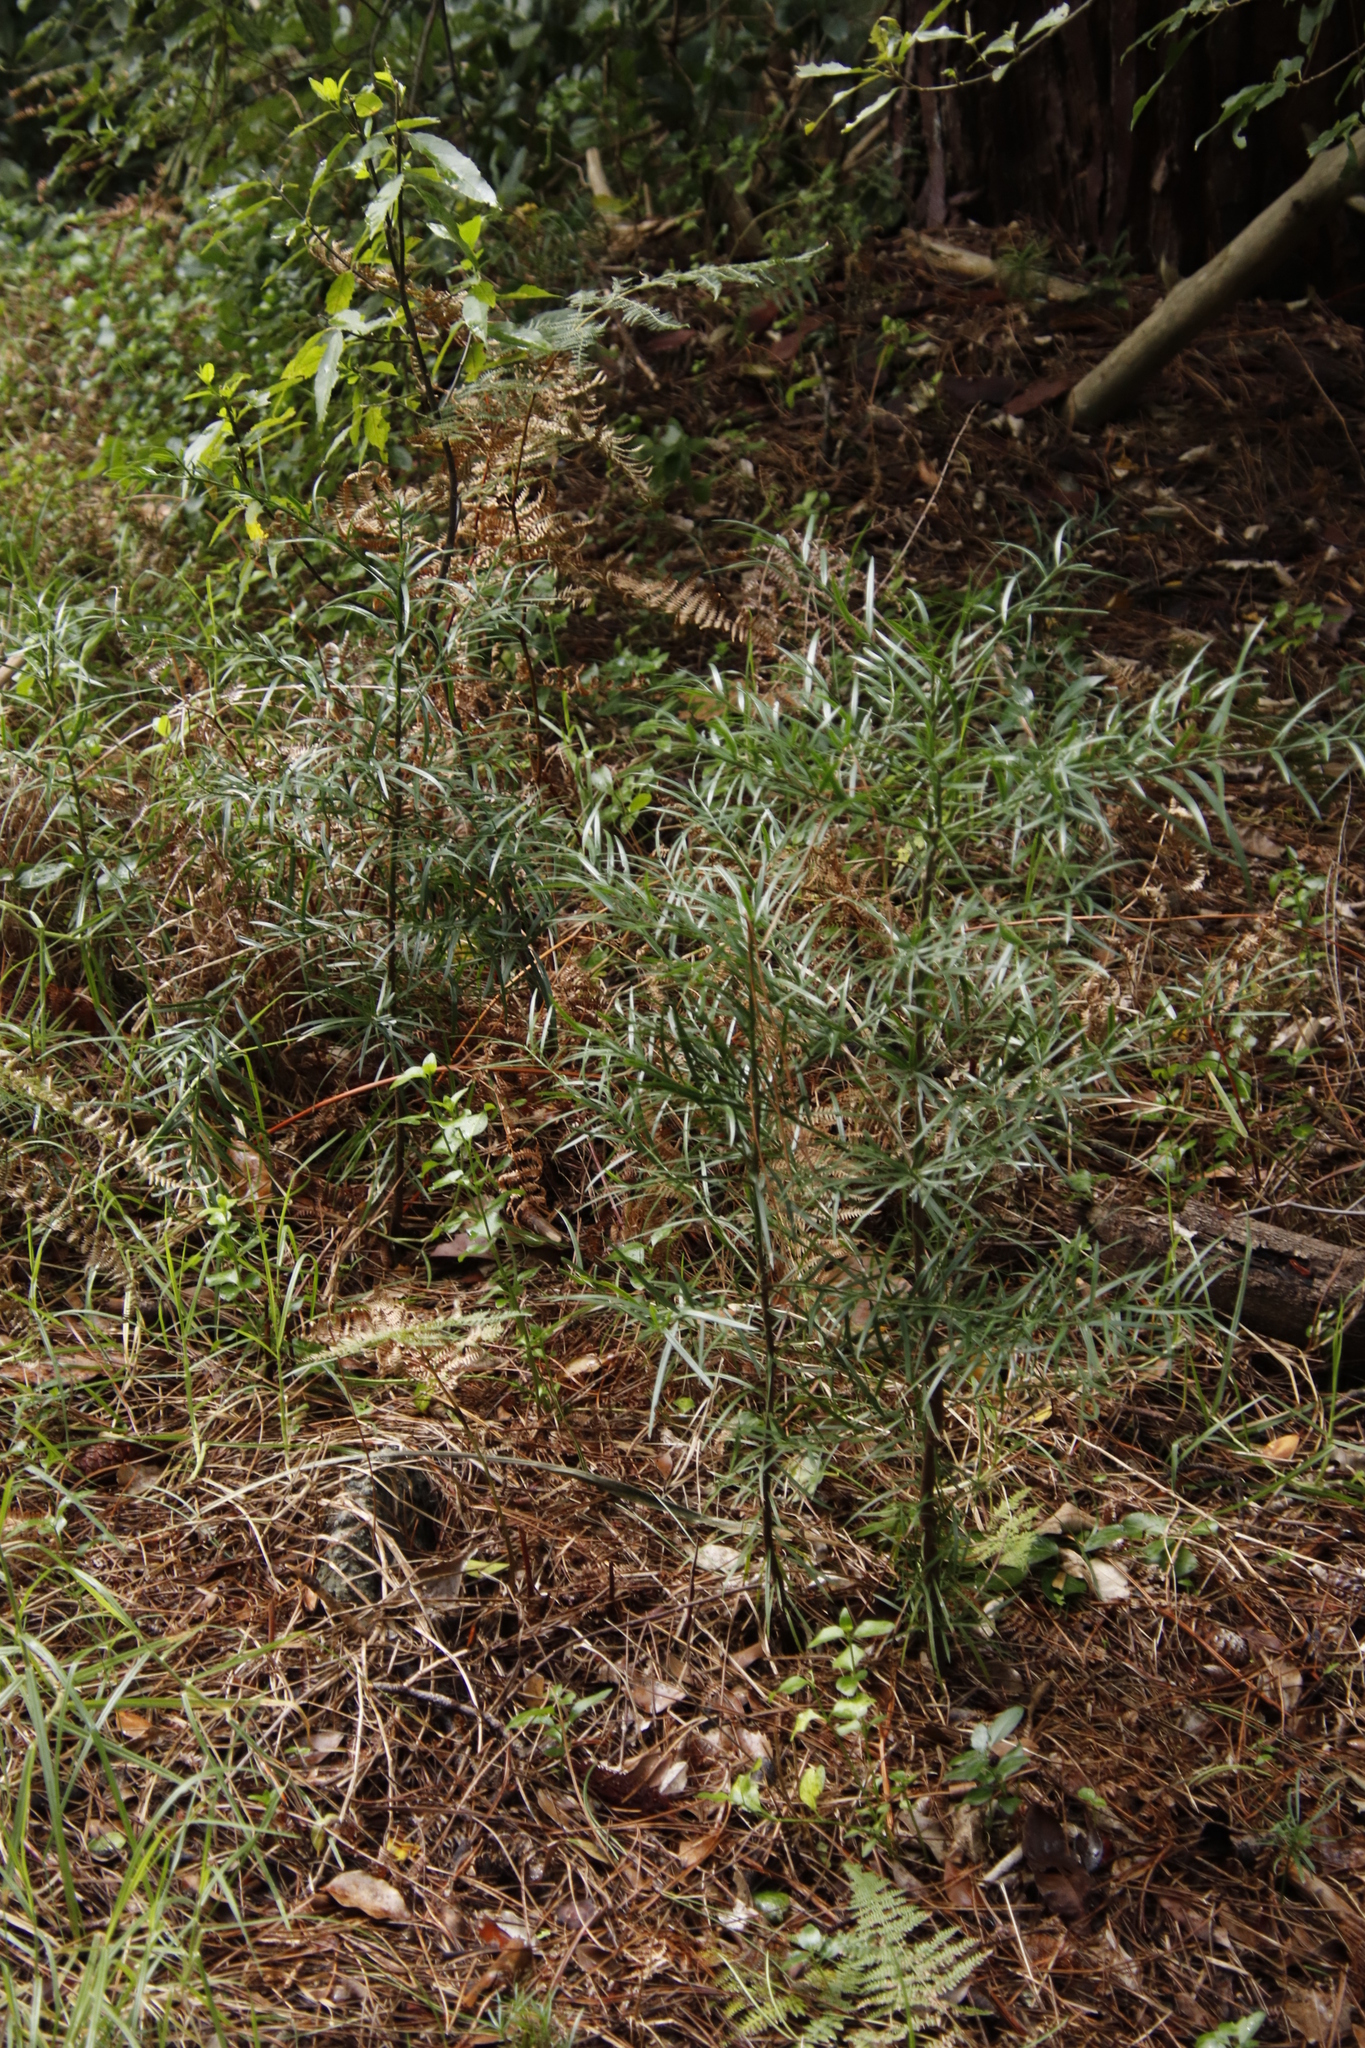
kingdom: Plantae
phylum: Tracheophyta
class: Pinopsida
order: Pinales
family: Podocarpaceae
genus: Afrocarpus
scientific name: Afrocarpus falcatus
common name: Bastard yellowwood
